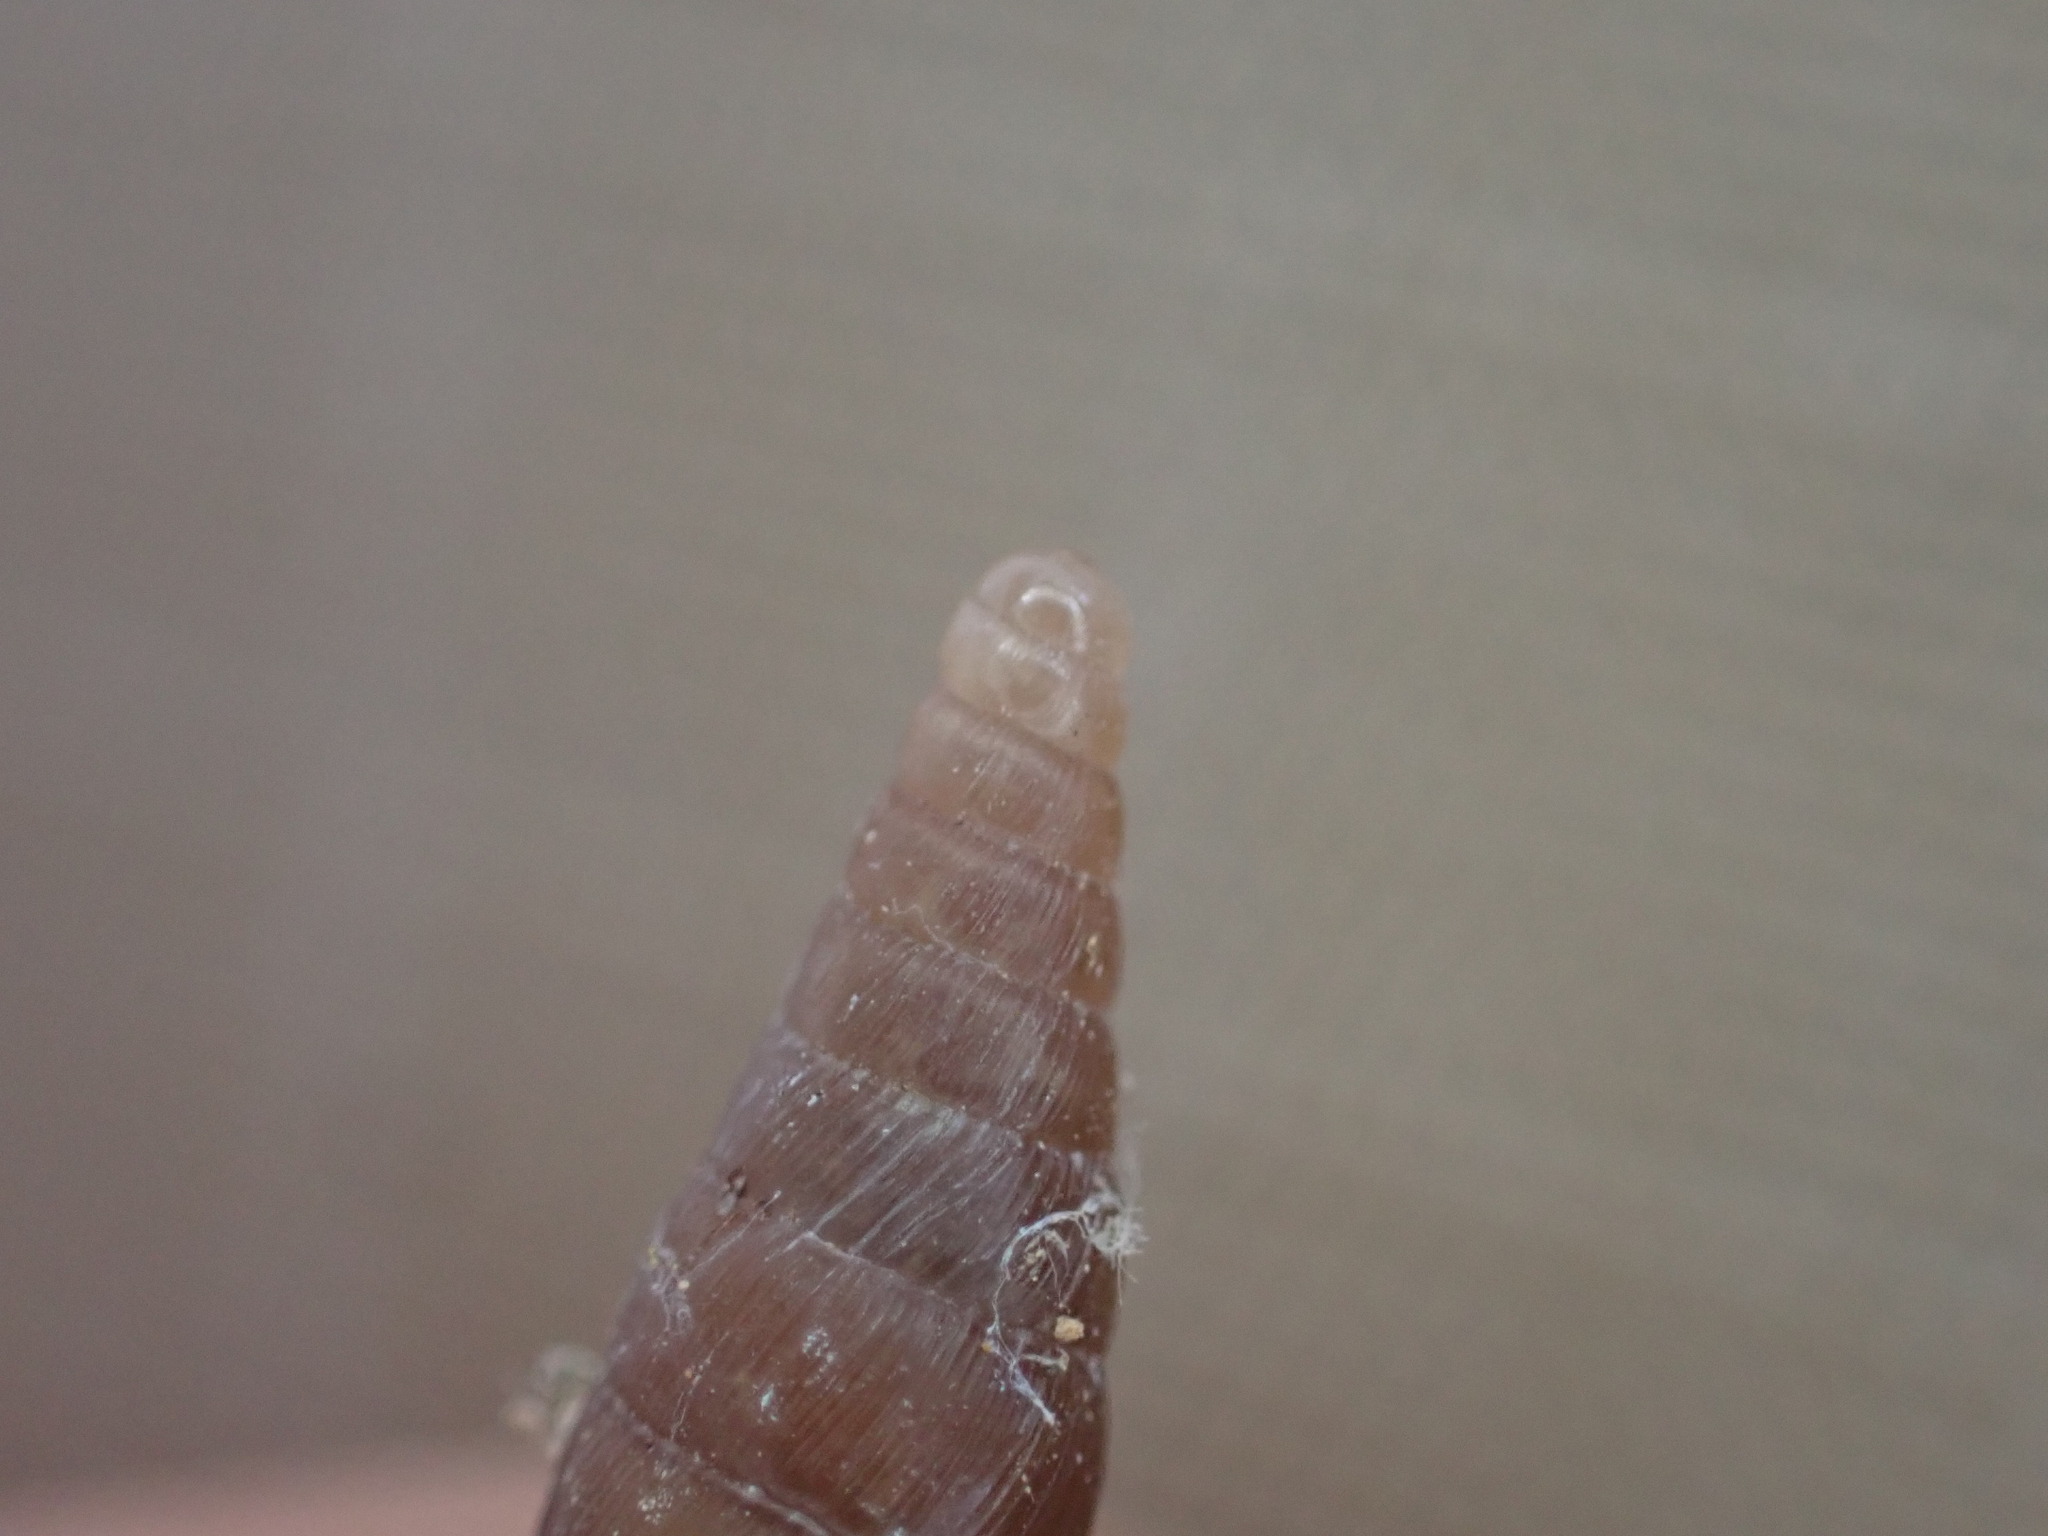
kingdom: Animalia
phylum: Mollusca
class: Gastropoda
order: Stylommatophora
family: Clausiliidae
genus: Papillifera
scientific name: Papillifera solida
